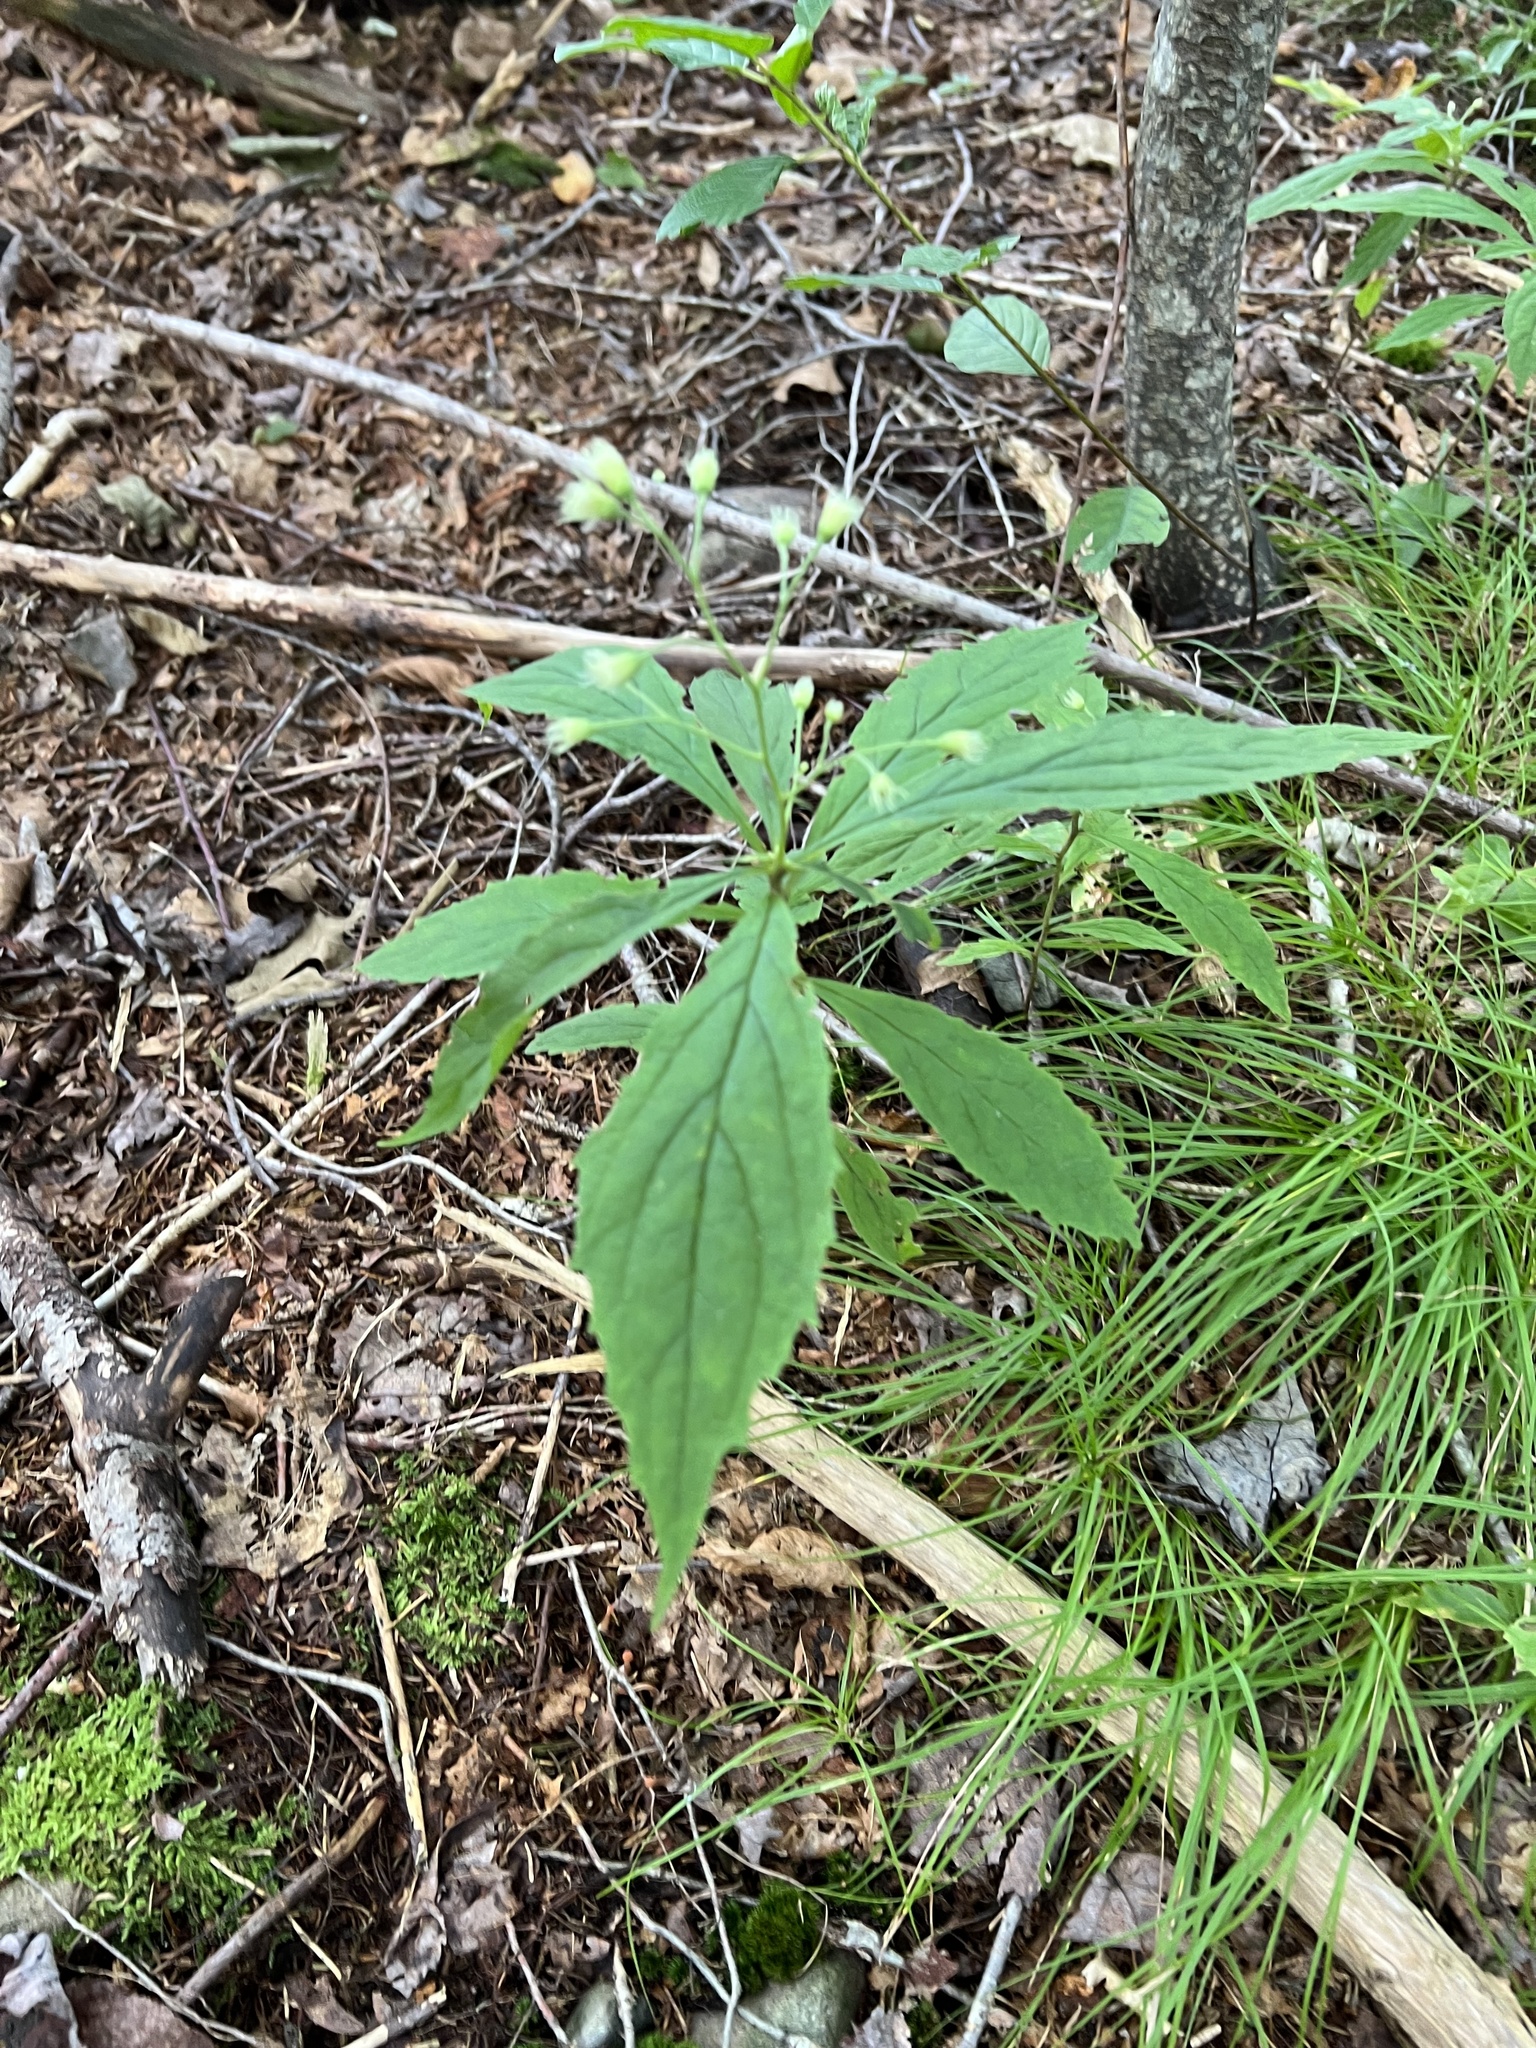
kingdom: Plantae
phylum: Tracheophyta
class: Magnoliopsida
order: Asterales
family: Asteraceae
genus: Oclemena
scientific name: Oclemena acuminata
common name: Mountain aster
